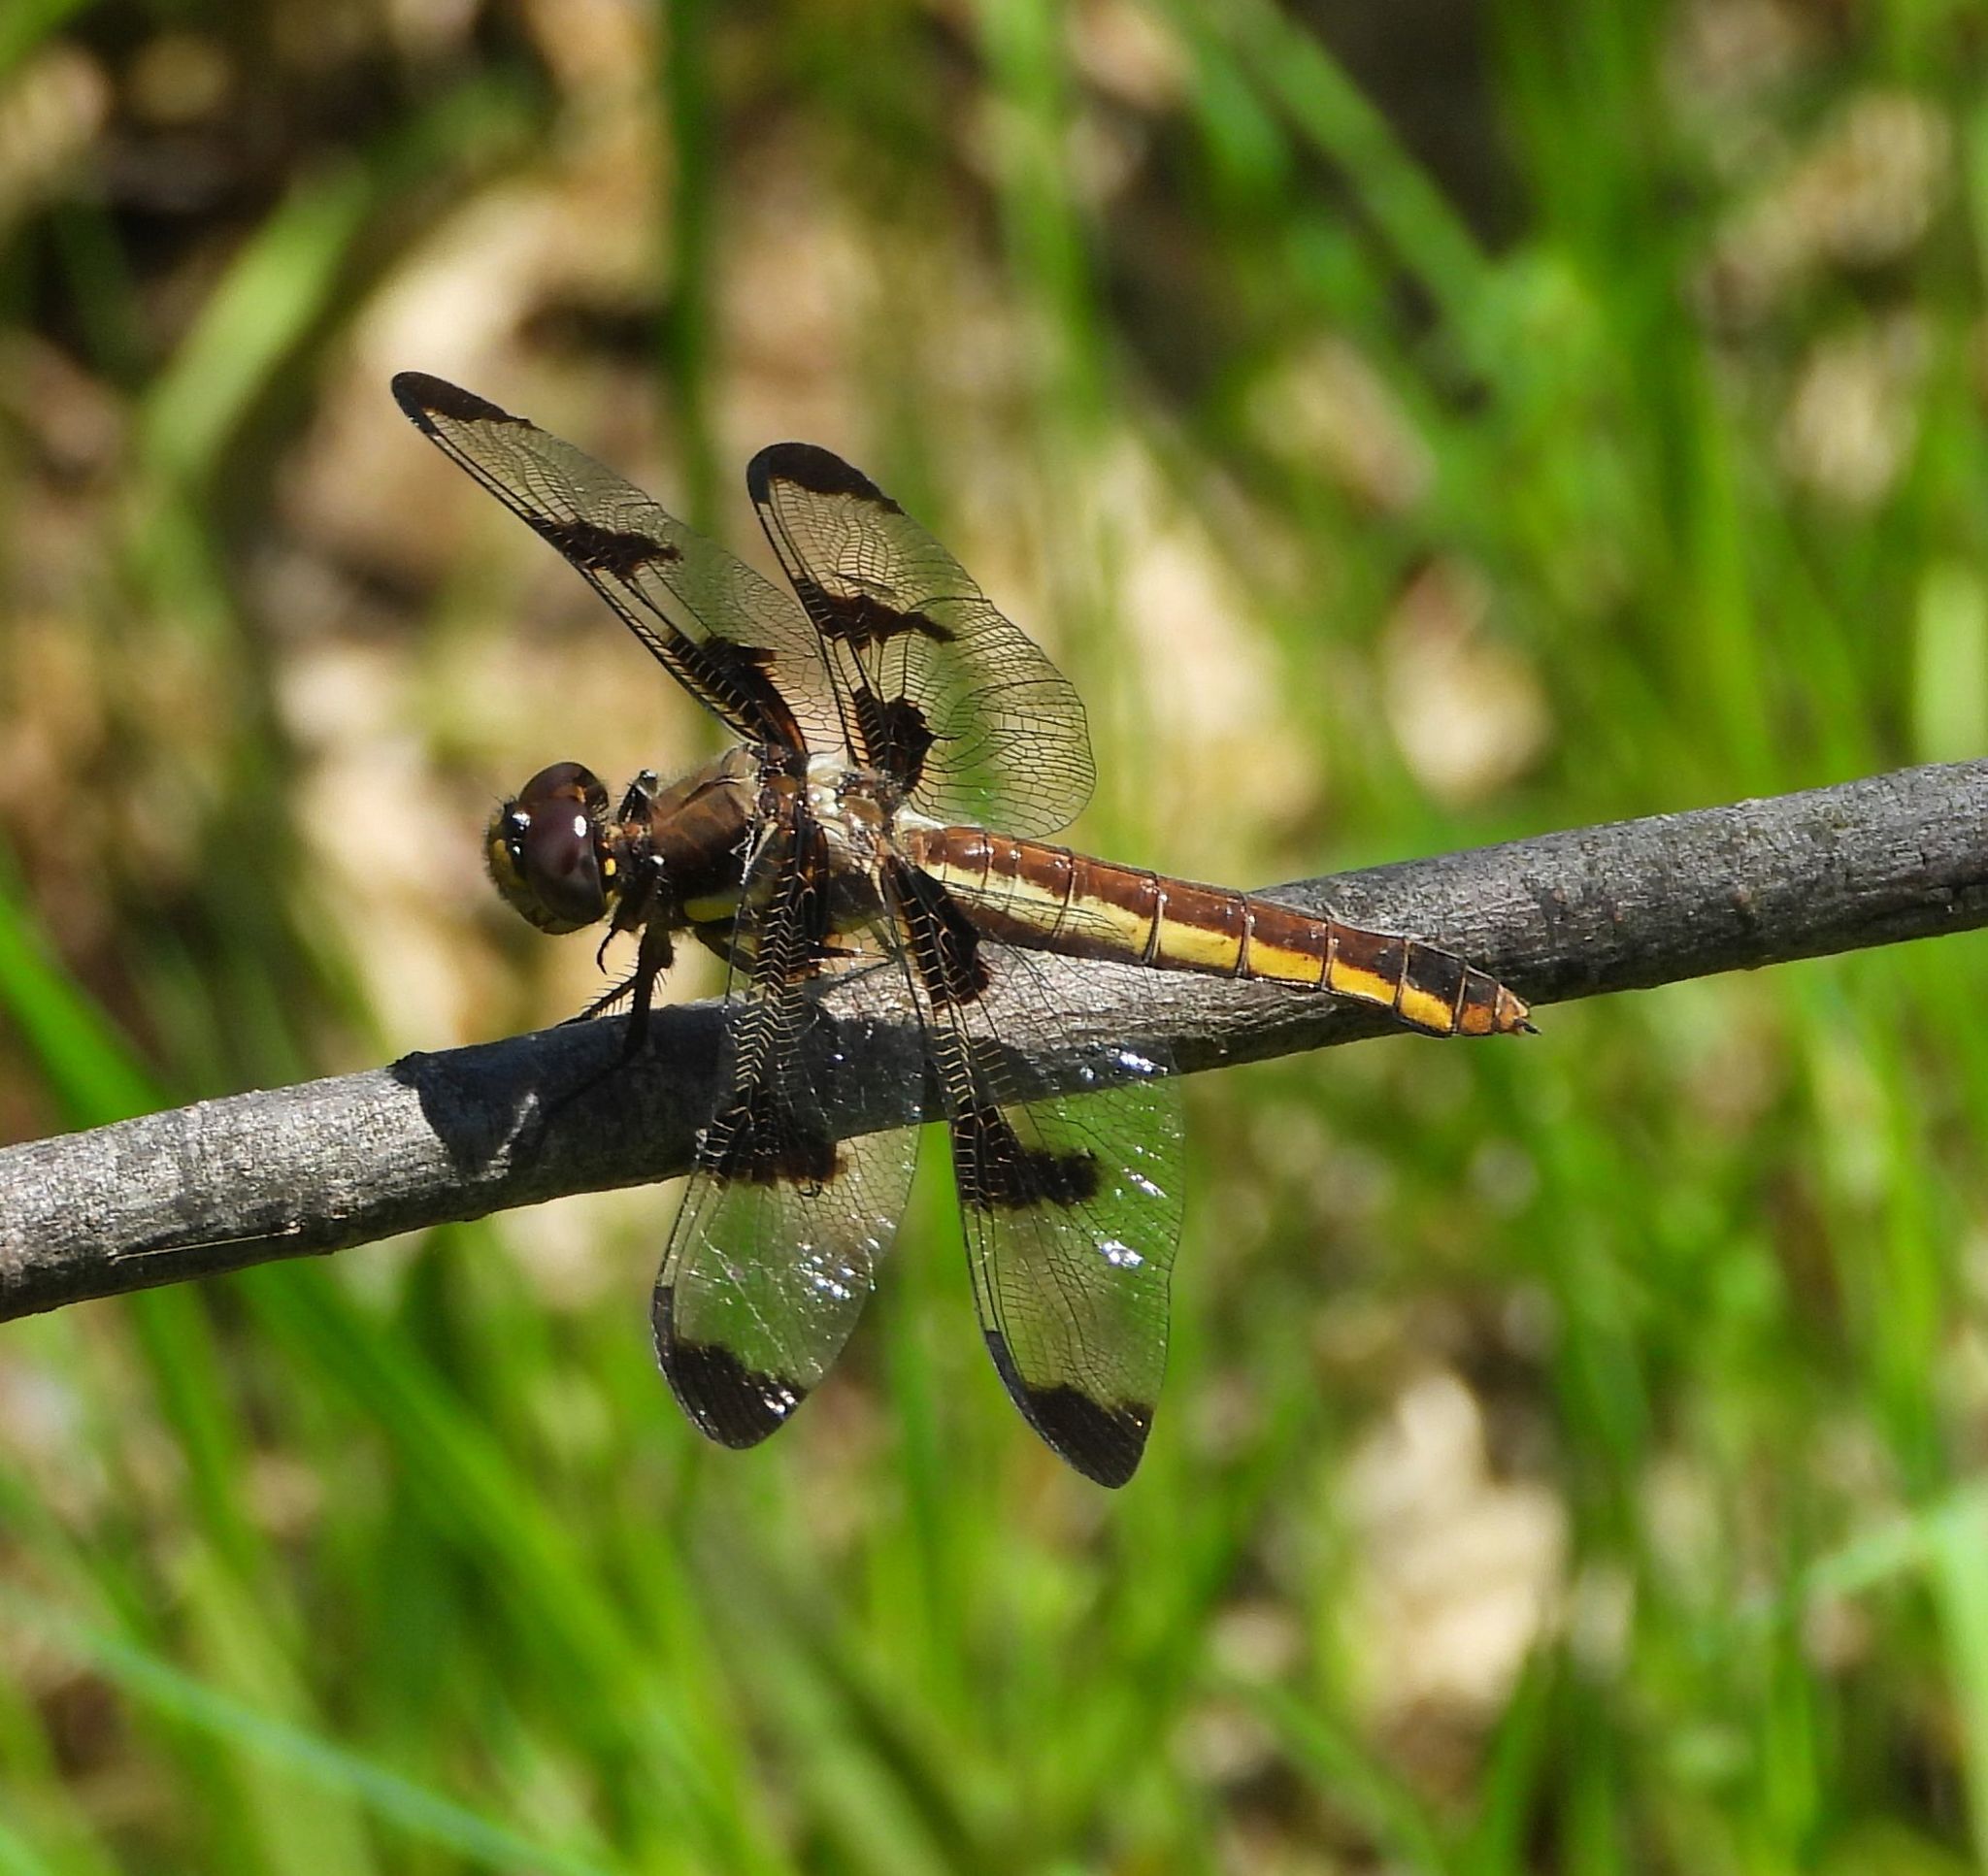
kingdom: Animalia
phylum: Arthropoda
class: Insecta
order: Odonata
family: Libellulidae
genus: Libellula
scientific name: Libellula pulchella
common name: Twelve-spotted skimmer
